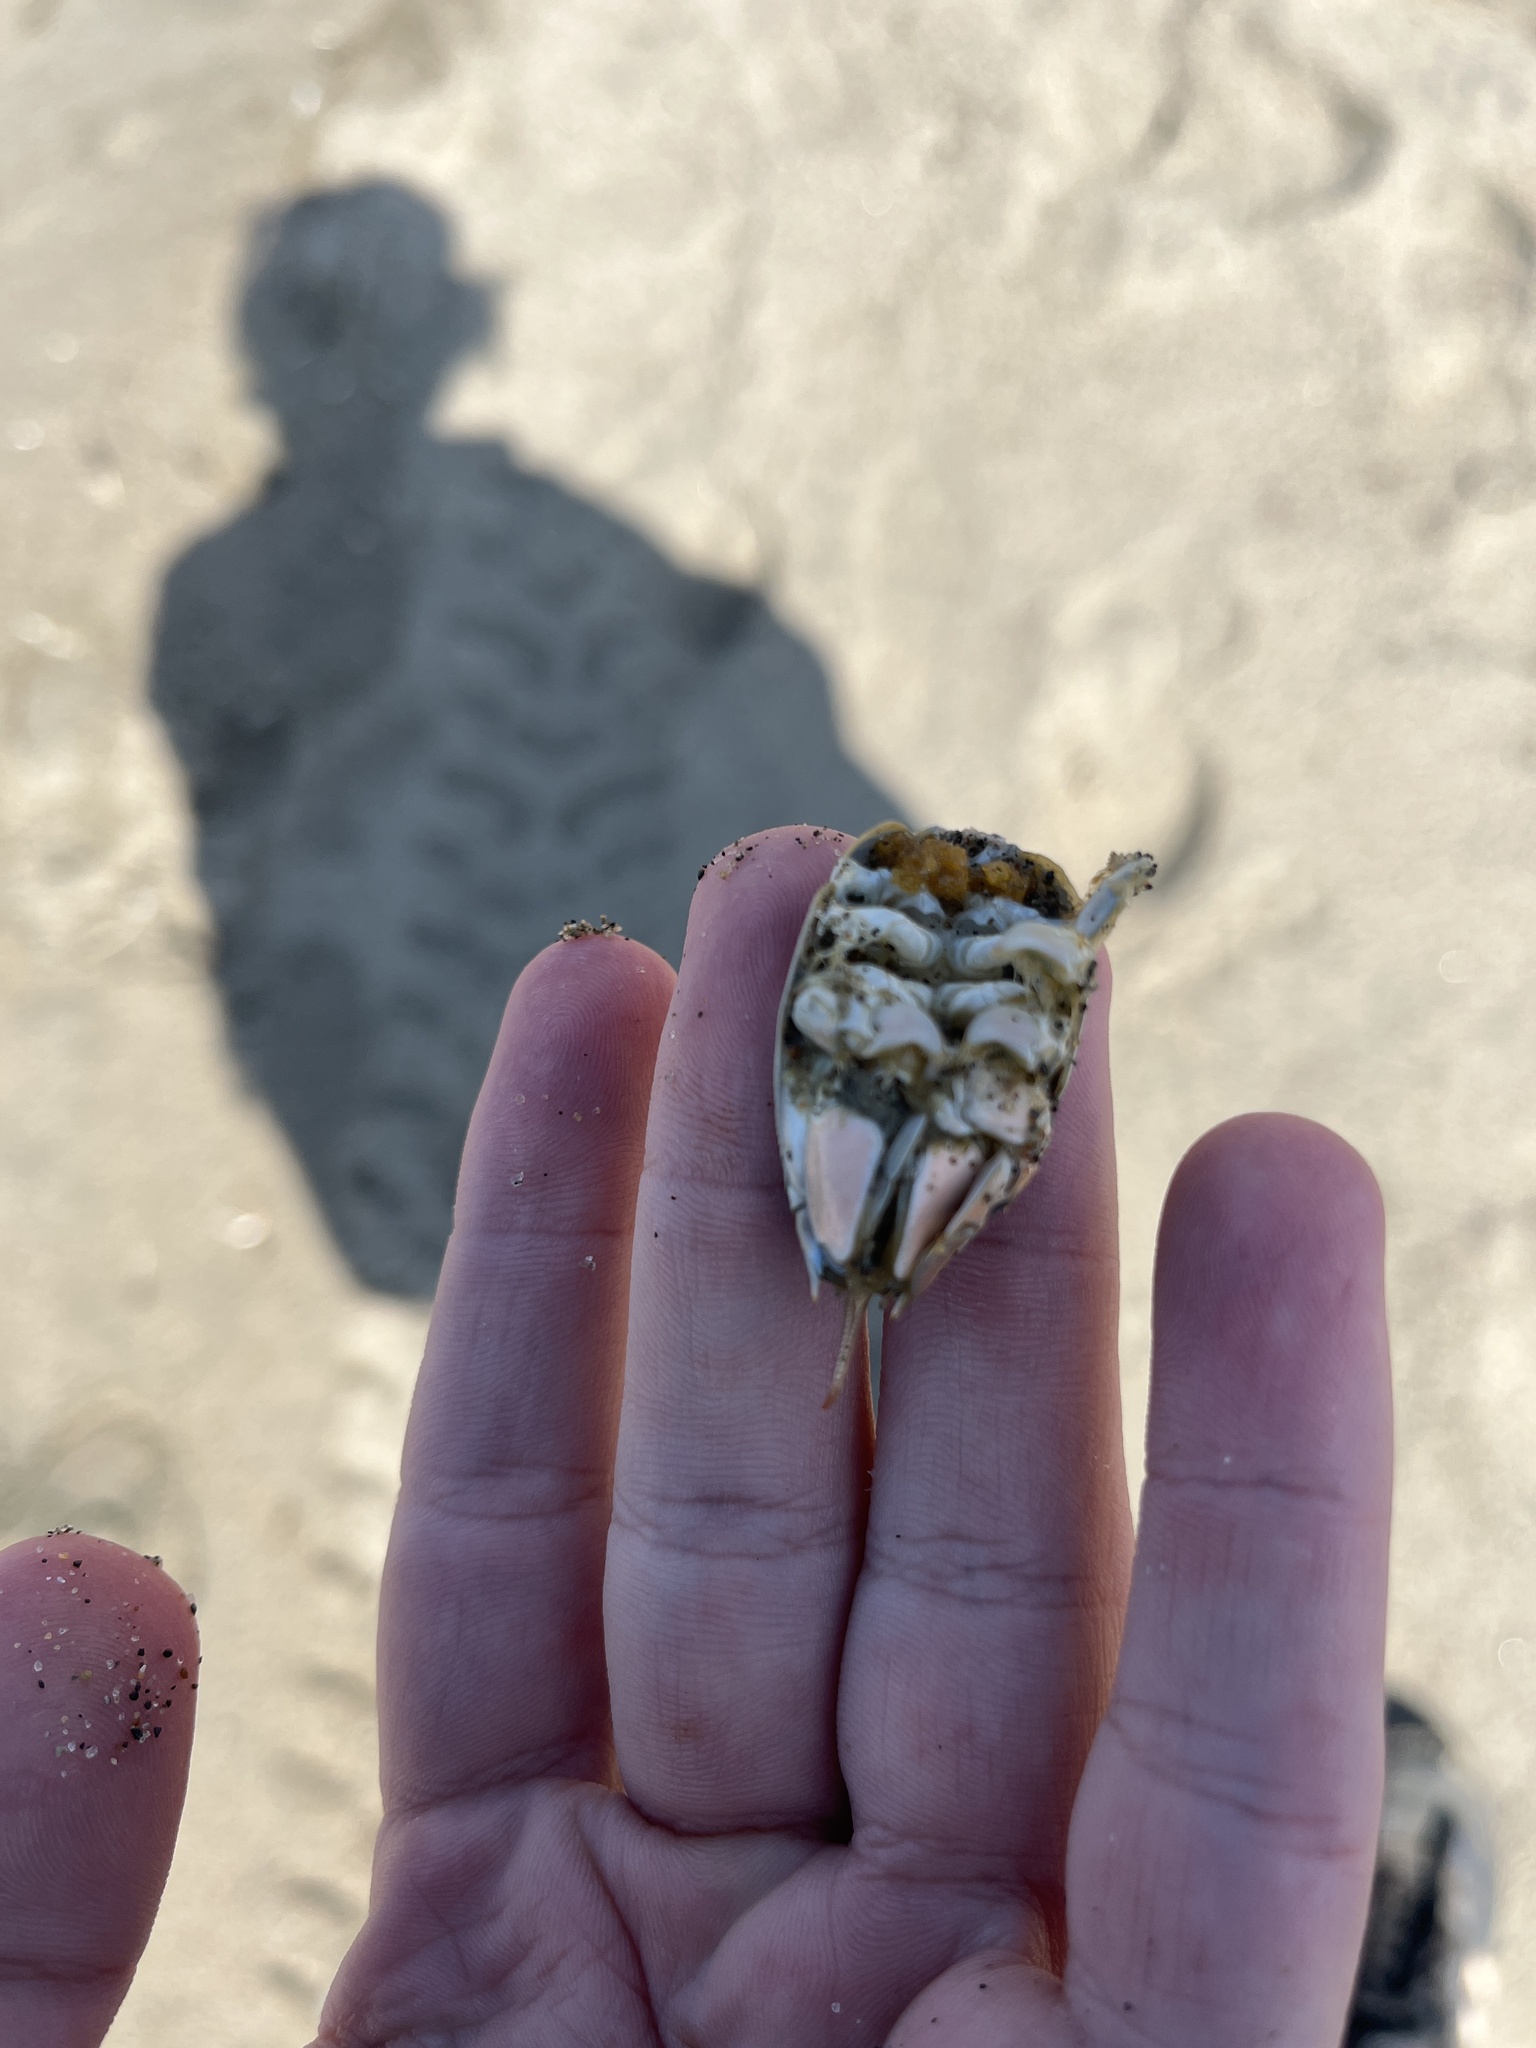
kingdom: Animalia
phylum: Arthropoda
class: Malacostraca
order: Decapoda
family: Hippidae
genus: Emerita
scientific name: Emerita analoga
